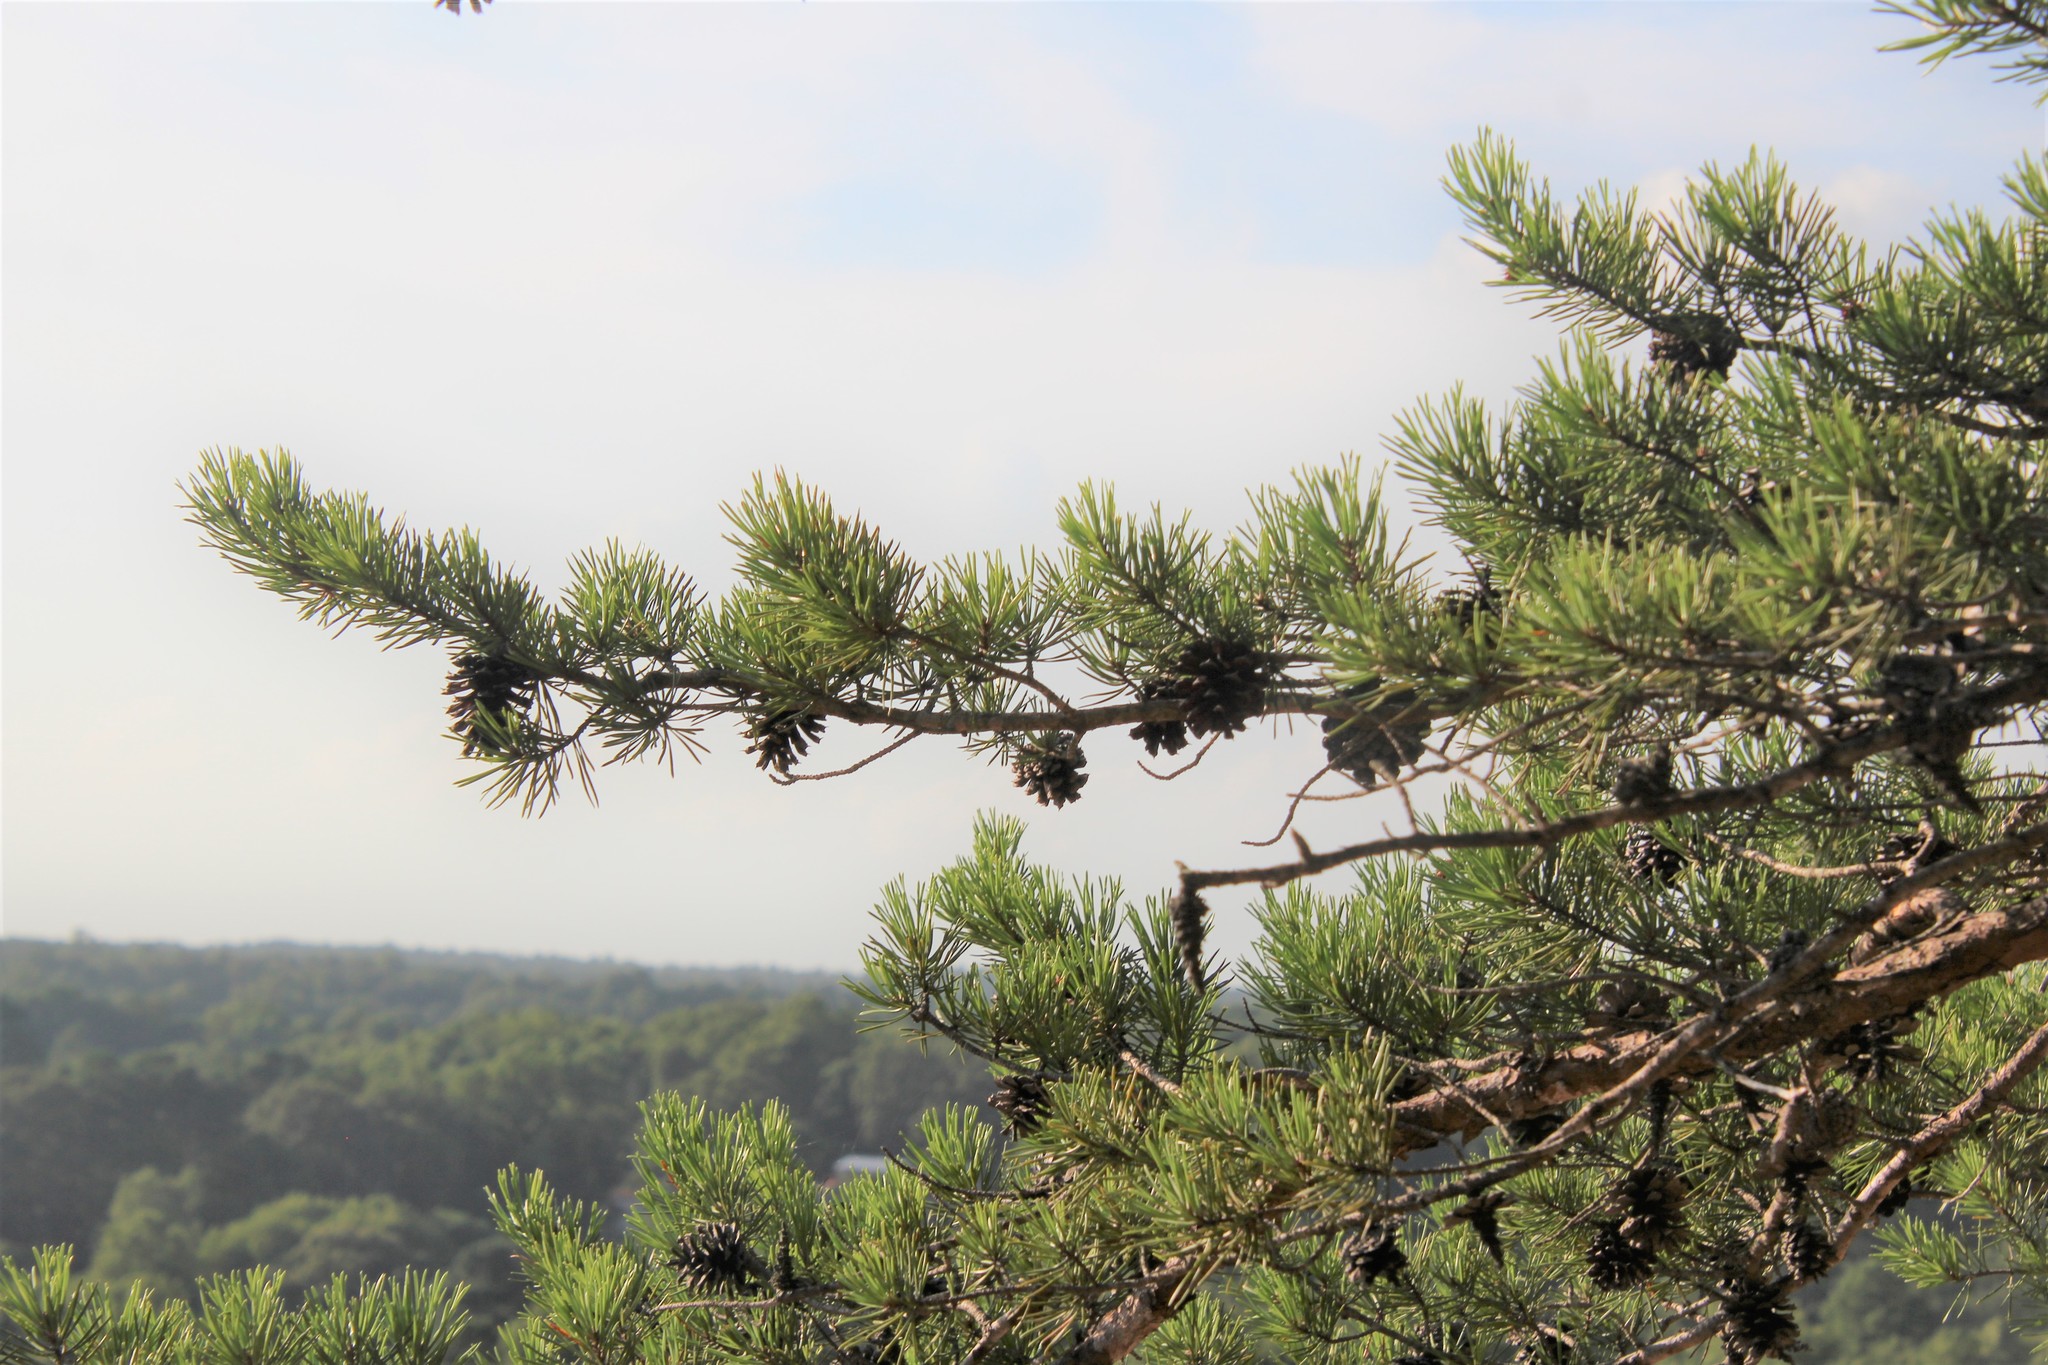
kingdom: Plantae
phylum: Tracheophyta
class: Pinopsida
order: Pinales
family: Pinaceae
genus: Pinus
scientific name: Pinus virginiana
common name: Scrub pine
